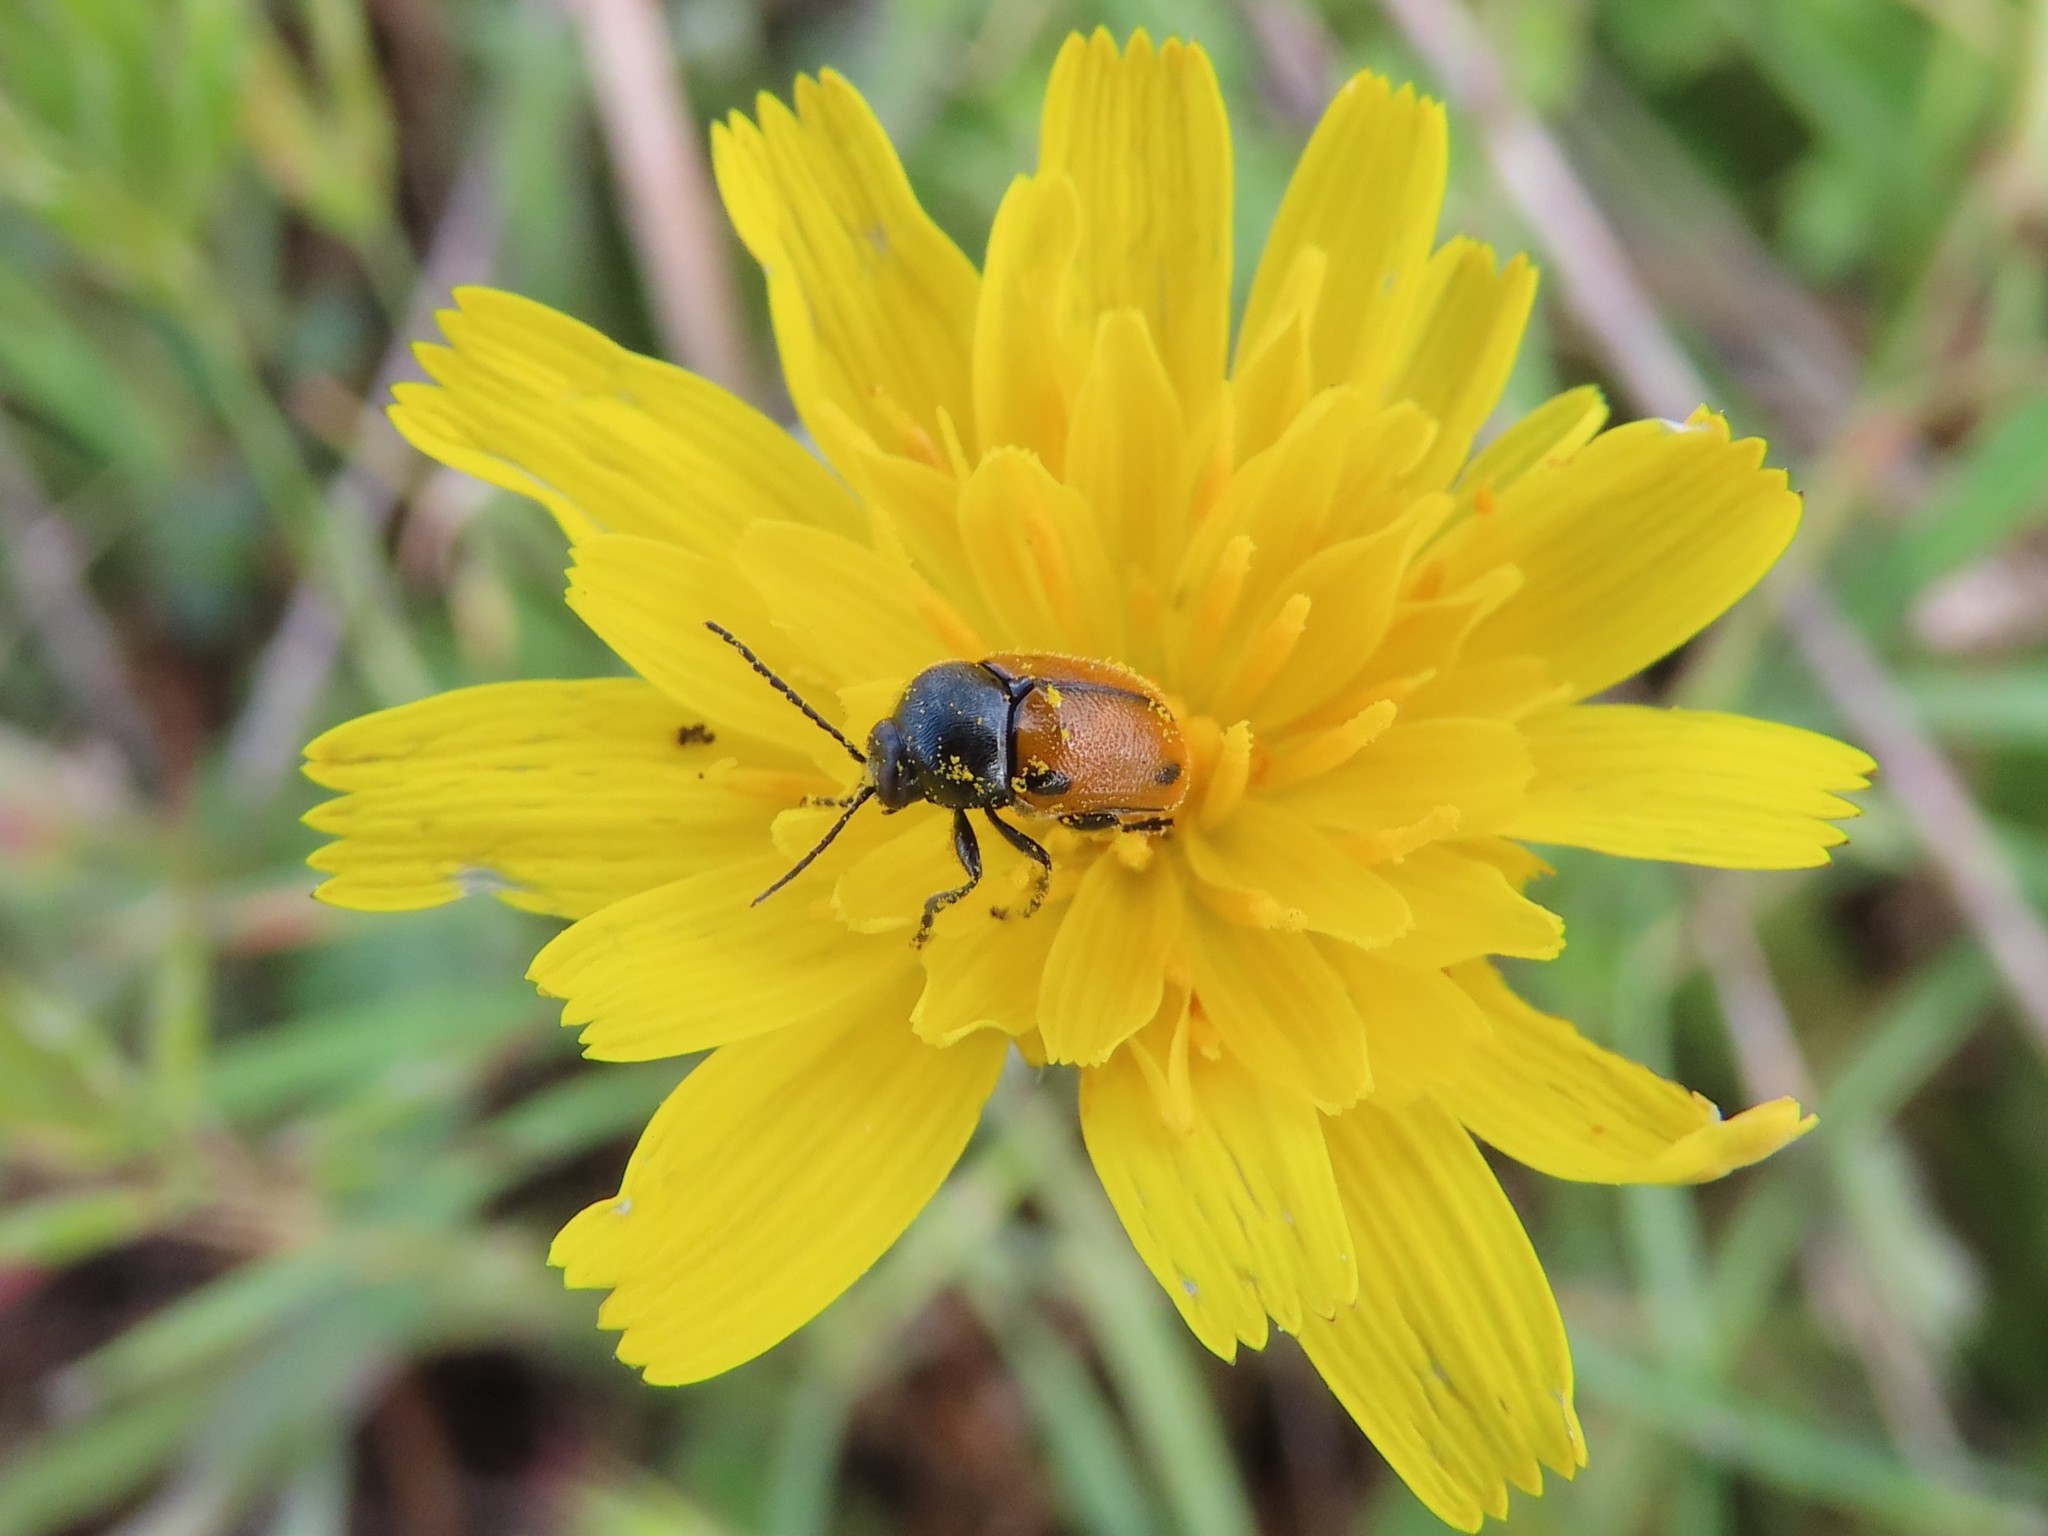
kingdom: Animalia
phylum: Arthropoda
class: Insecta
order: Coleoptera
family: Chrysomelidae
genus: Cryptocephalus
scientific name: Cryptocephalus rugicollis
